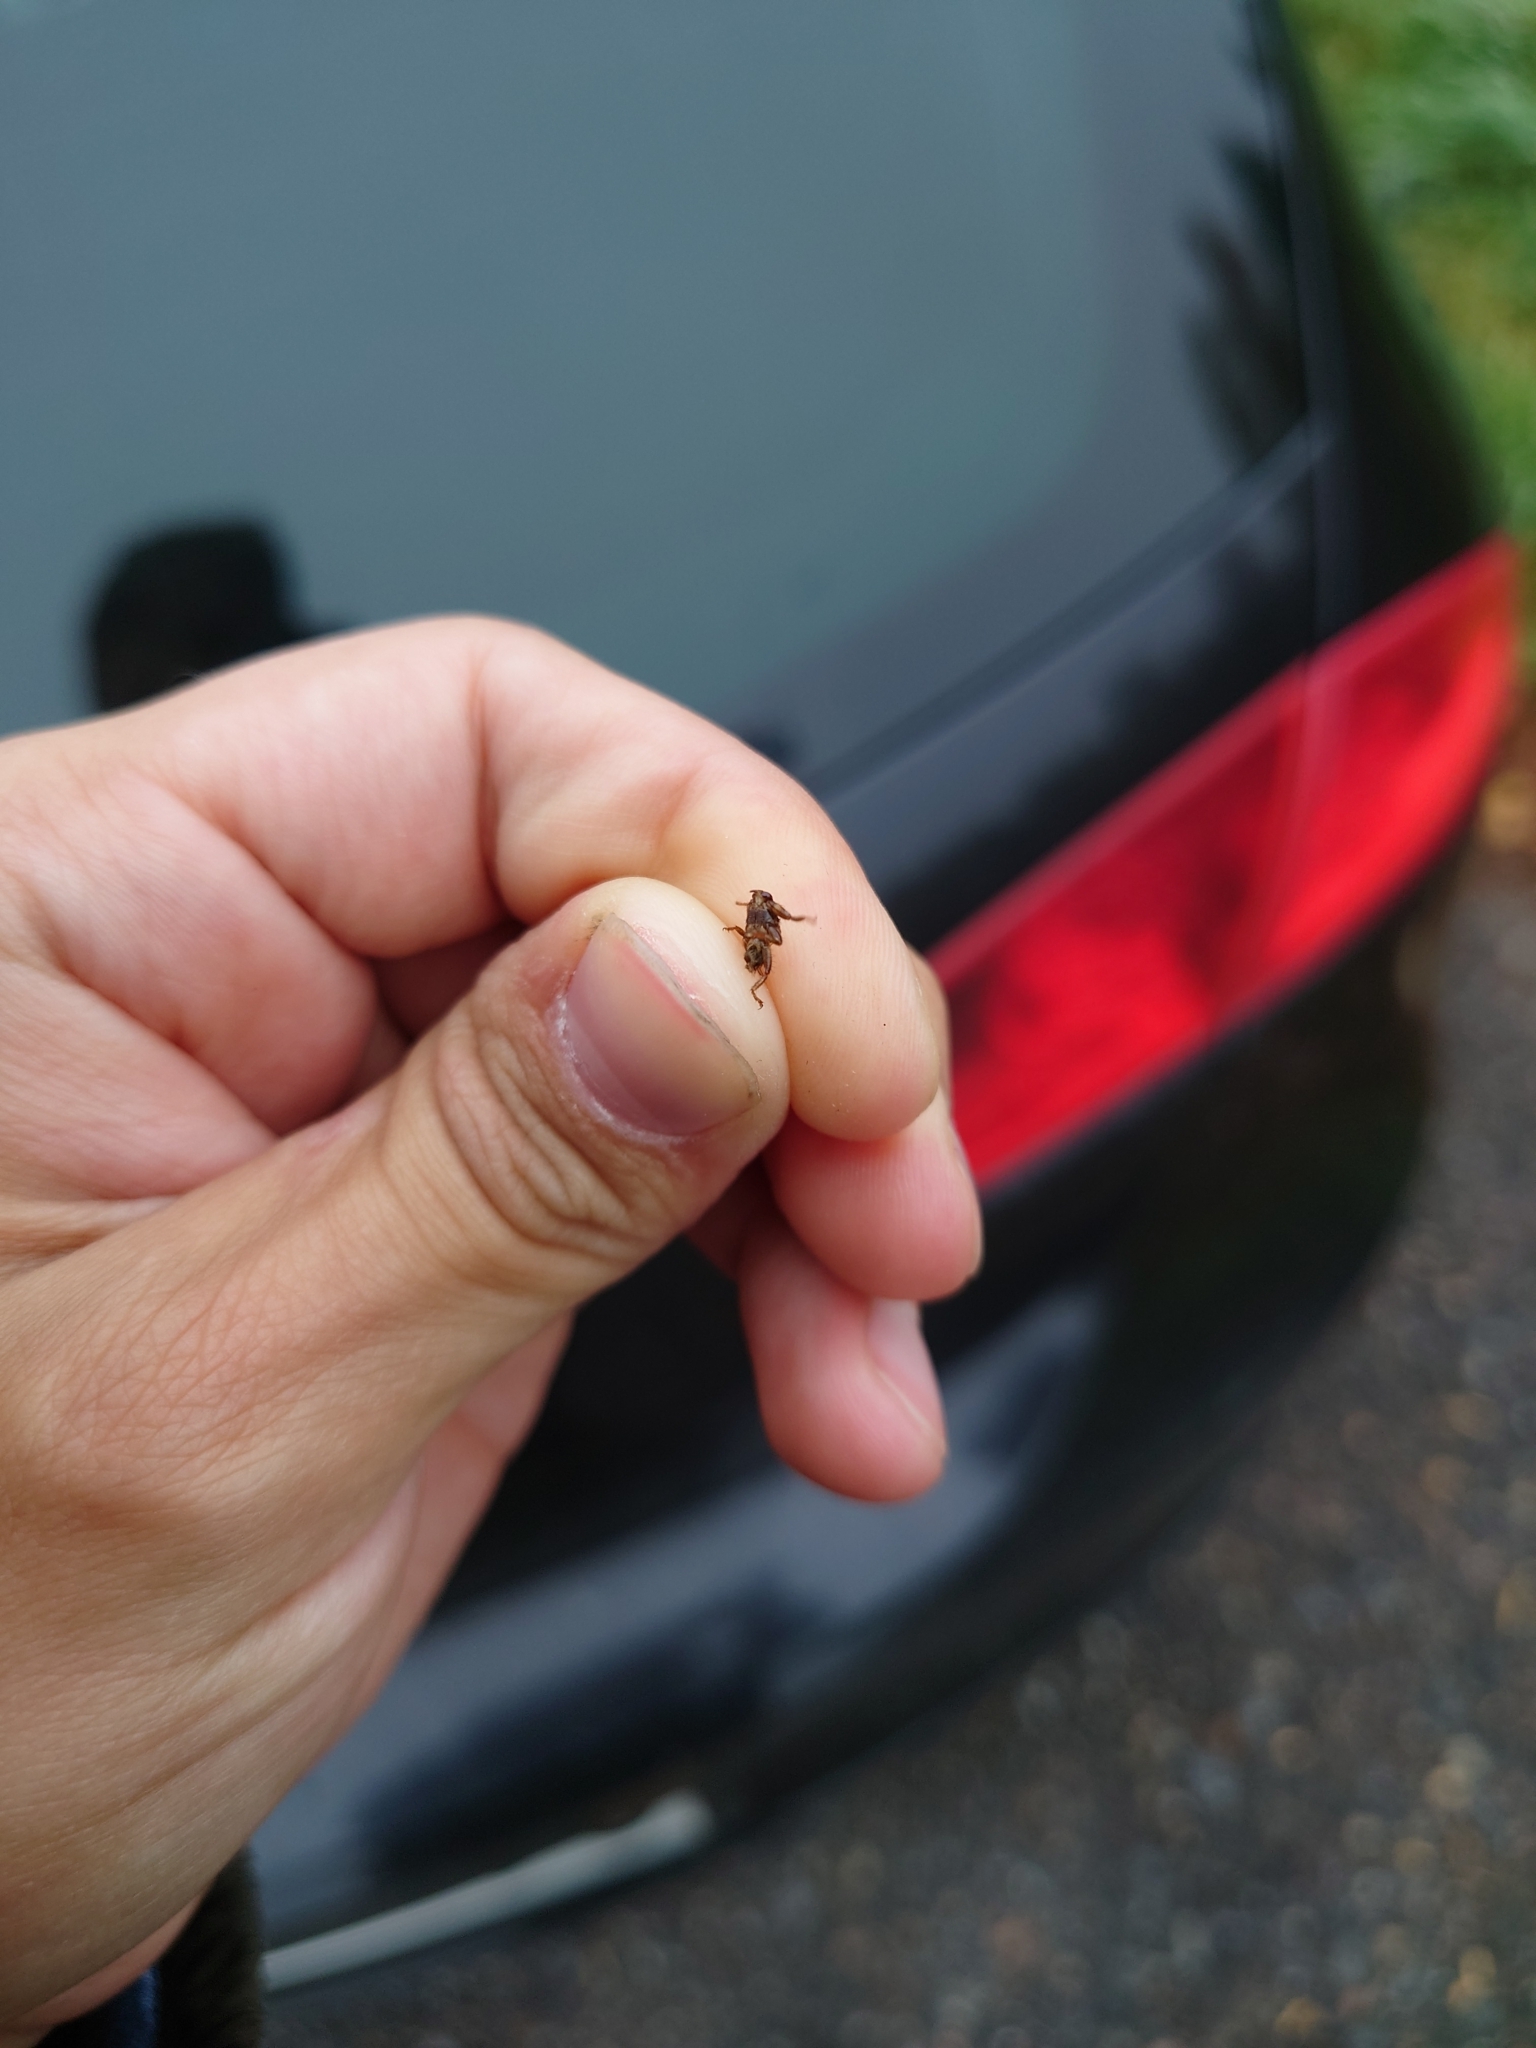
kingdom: Animalia
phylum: Arthropoda
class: Insecta
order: Diptera
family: Hippoboscidae
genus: Lipoptena
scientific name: Lipoptena cervi
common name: Deer ked
